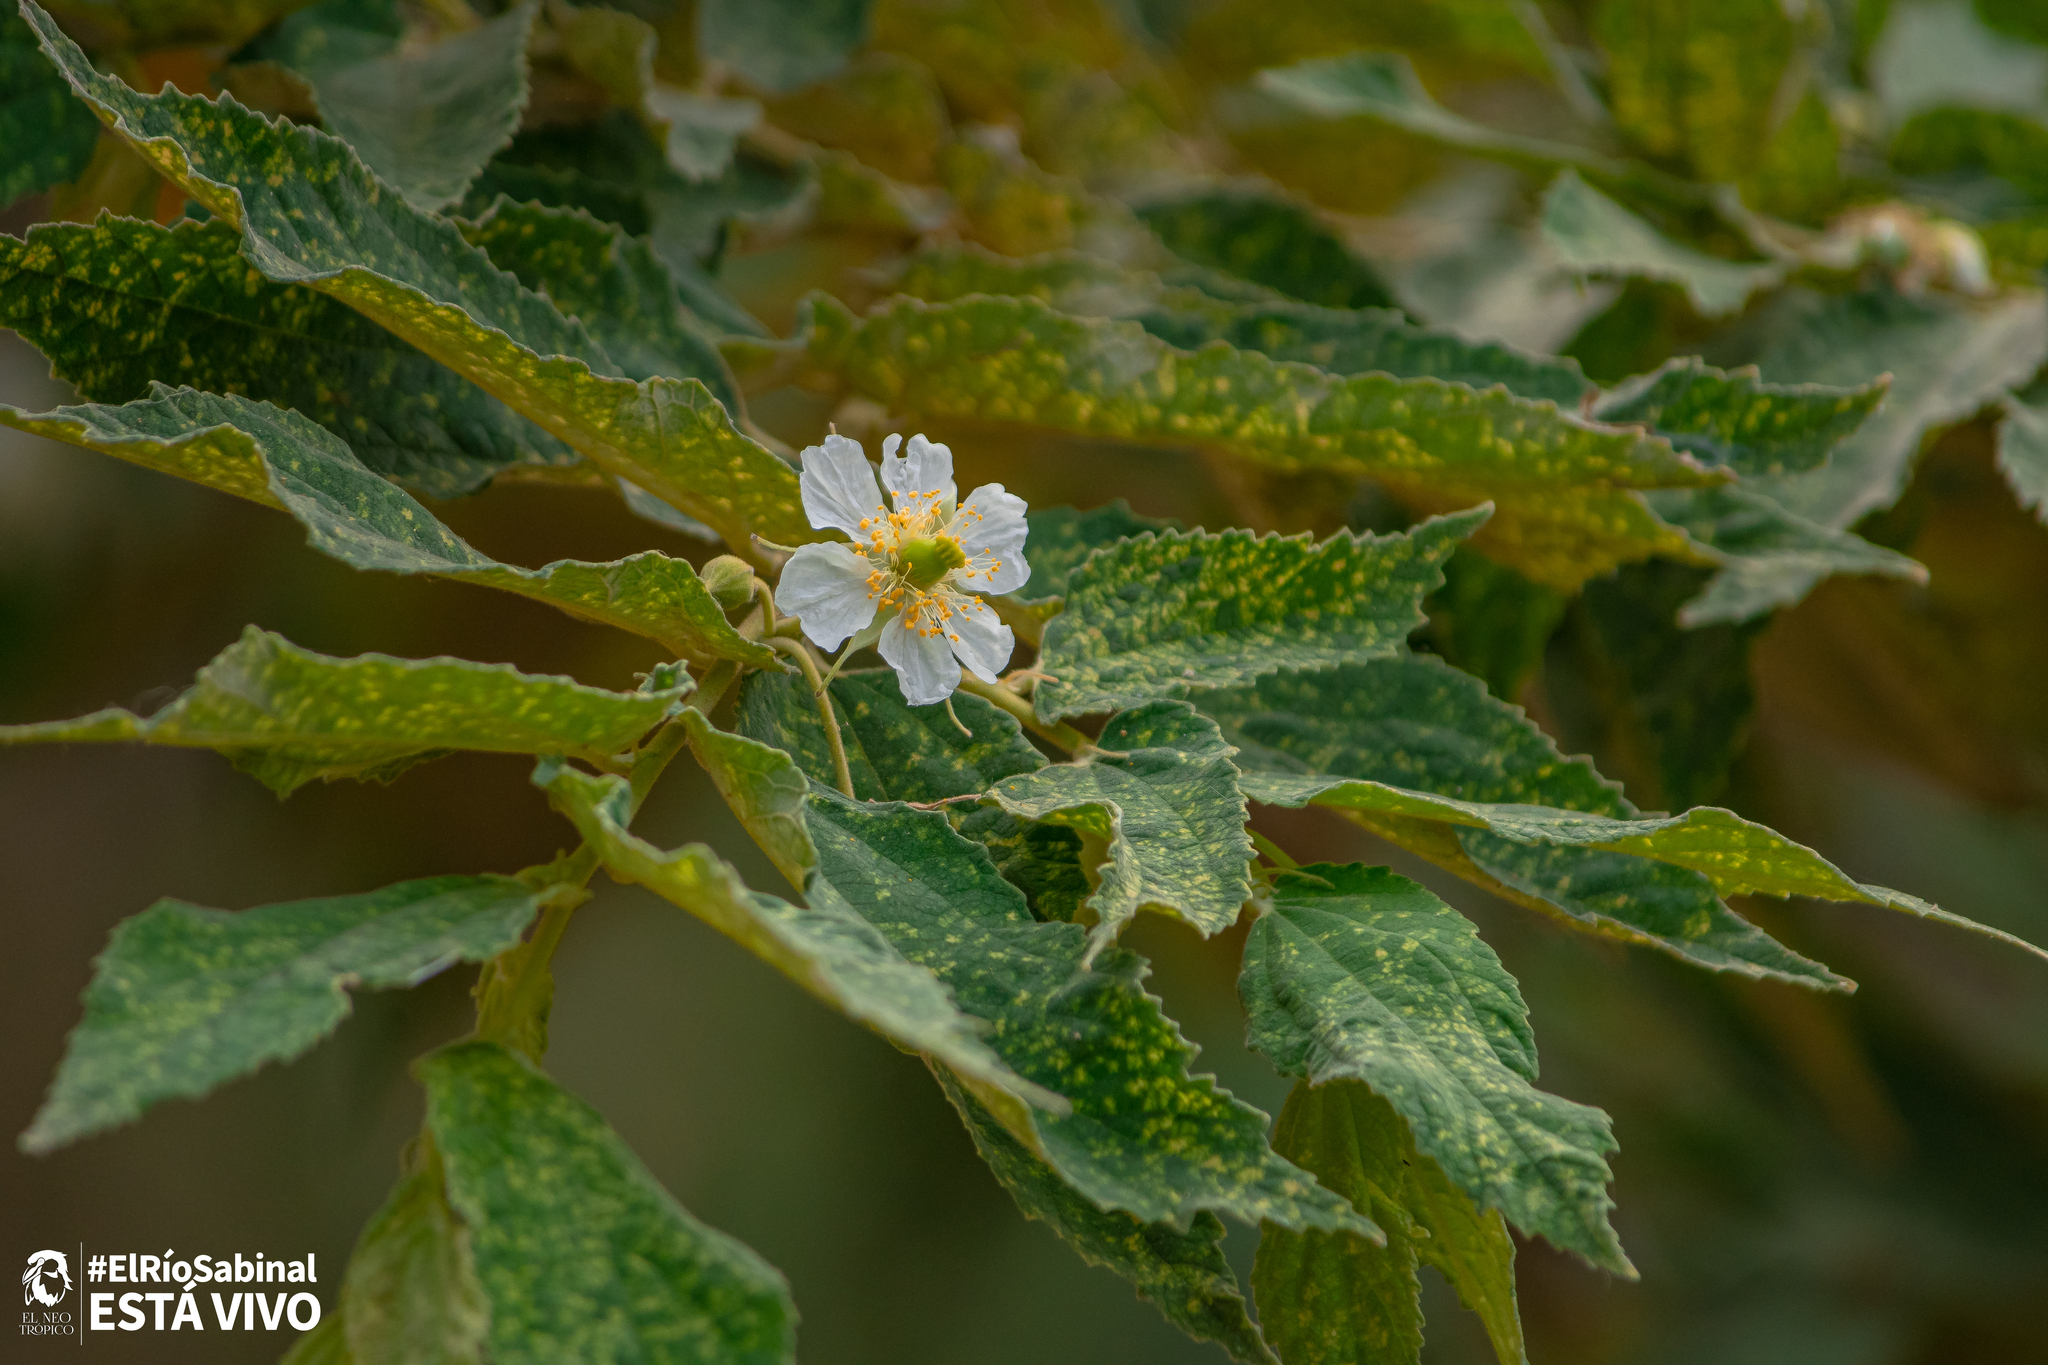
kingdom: Plantae
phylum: Tracheophyta
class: Magnoliopsida
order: Malvales
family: Muntingiaceae
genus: Muntingia
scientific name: Muntingia calabura
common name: Strawberrytree
